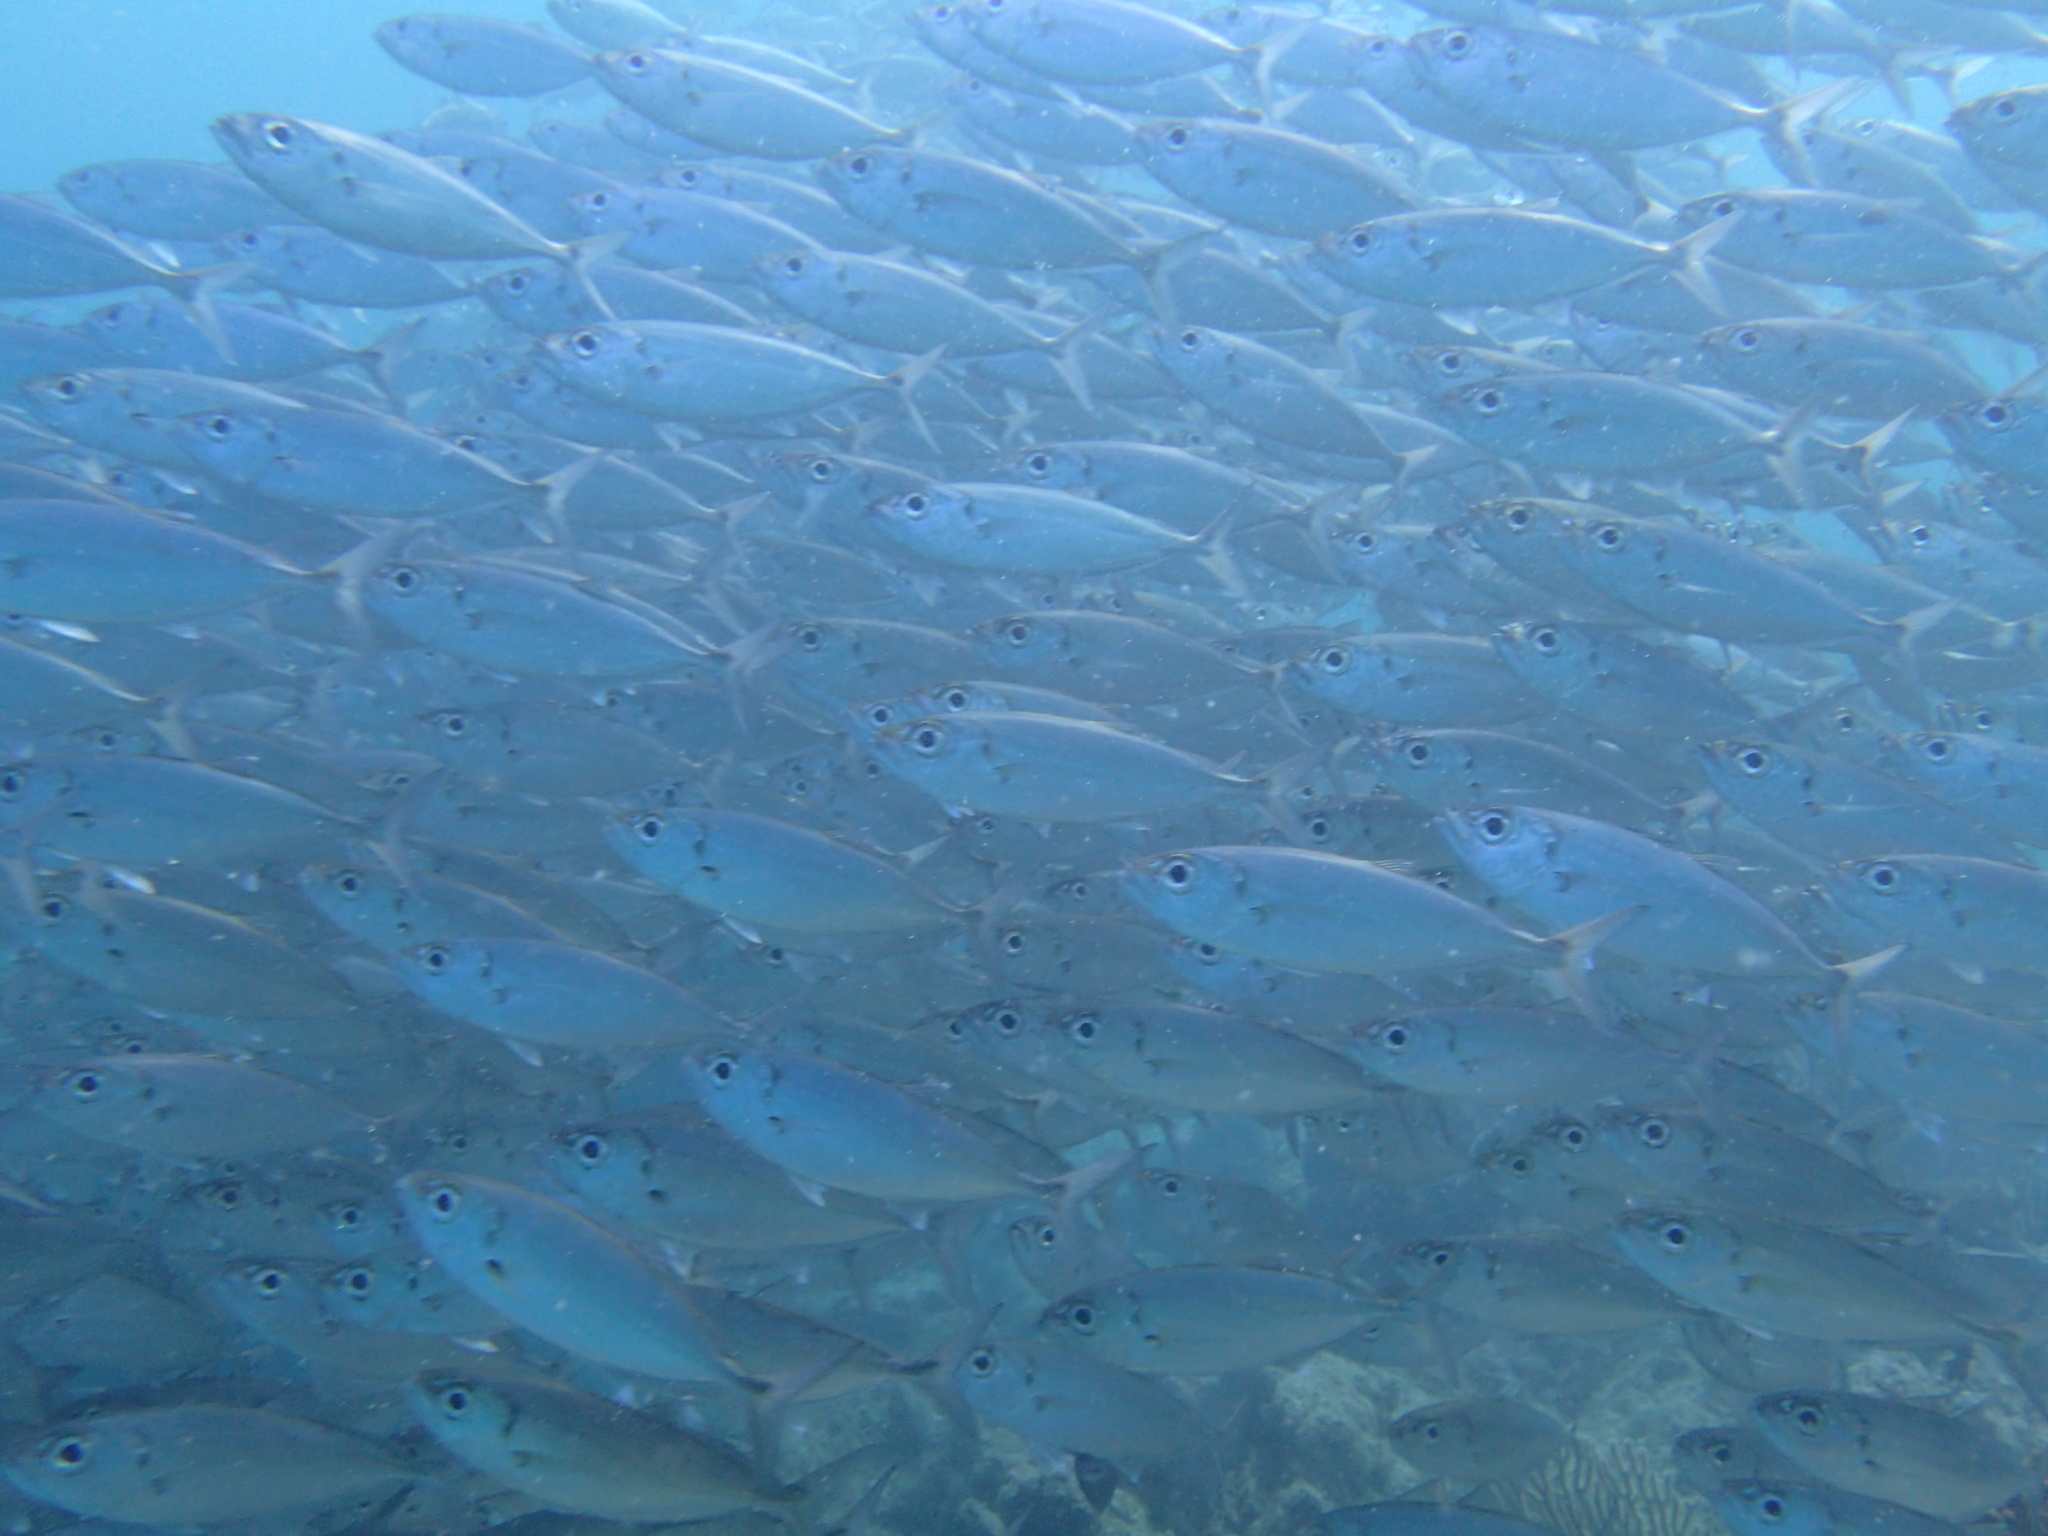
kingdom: Animalia
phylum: Chordata
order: Perciformes
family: Carangidae
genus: Selar
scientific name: Selar crumenophthalmus
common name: Bigeye scad
